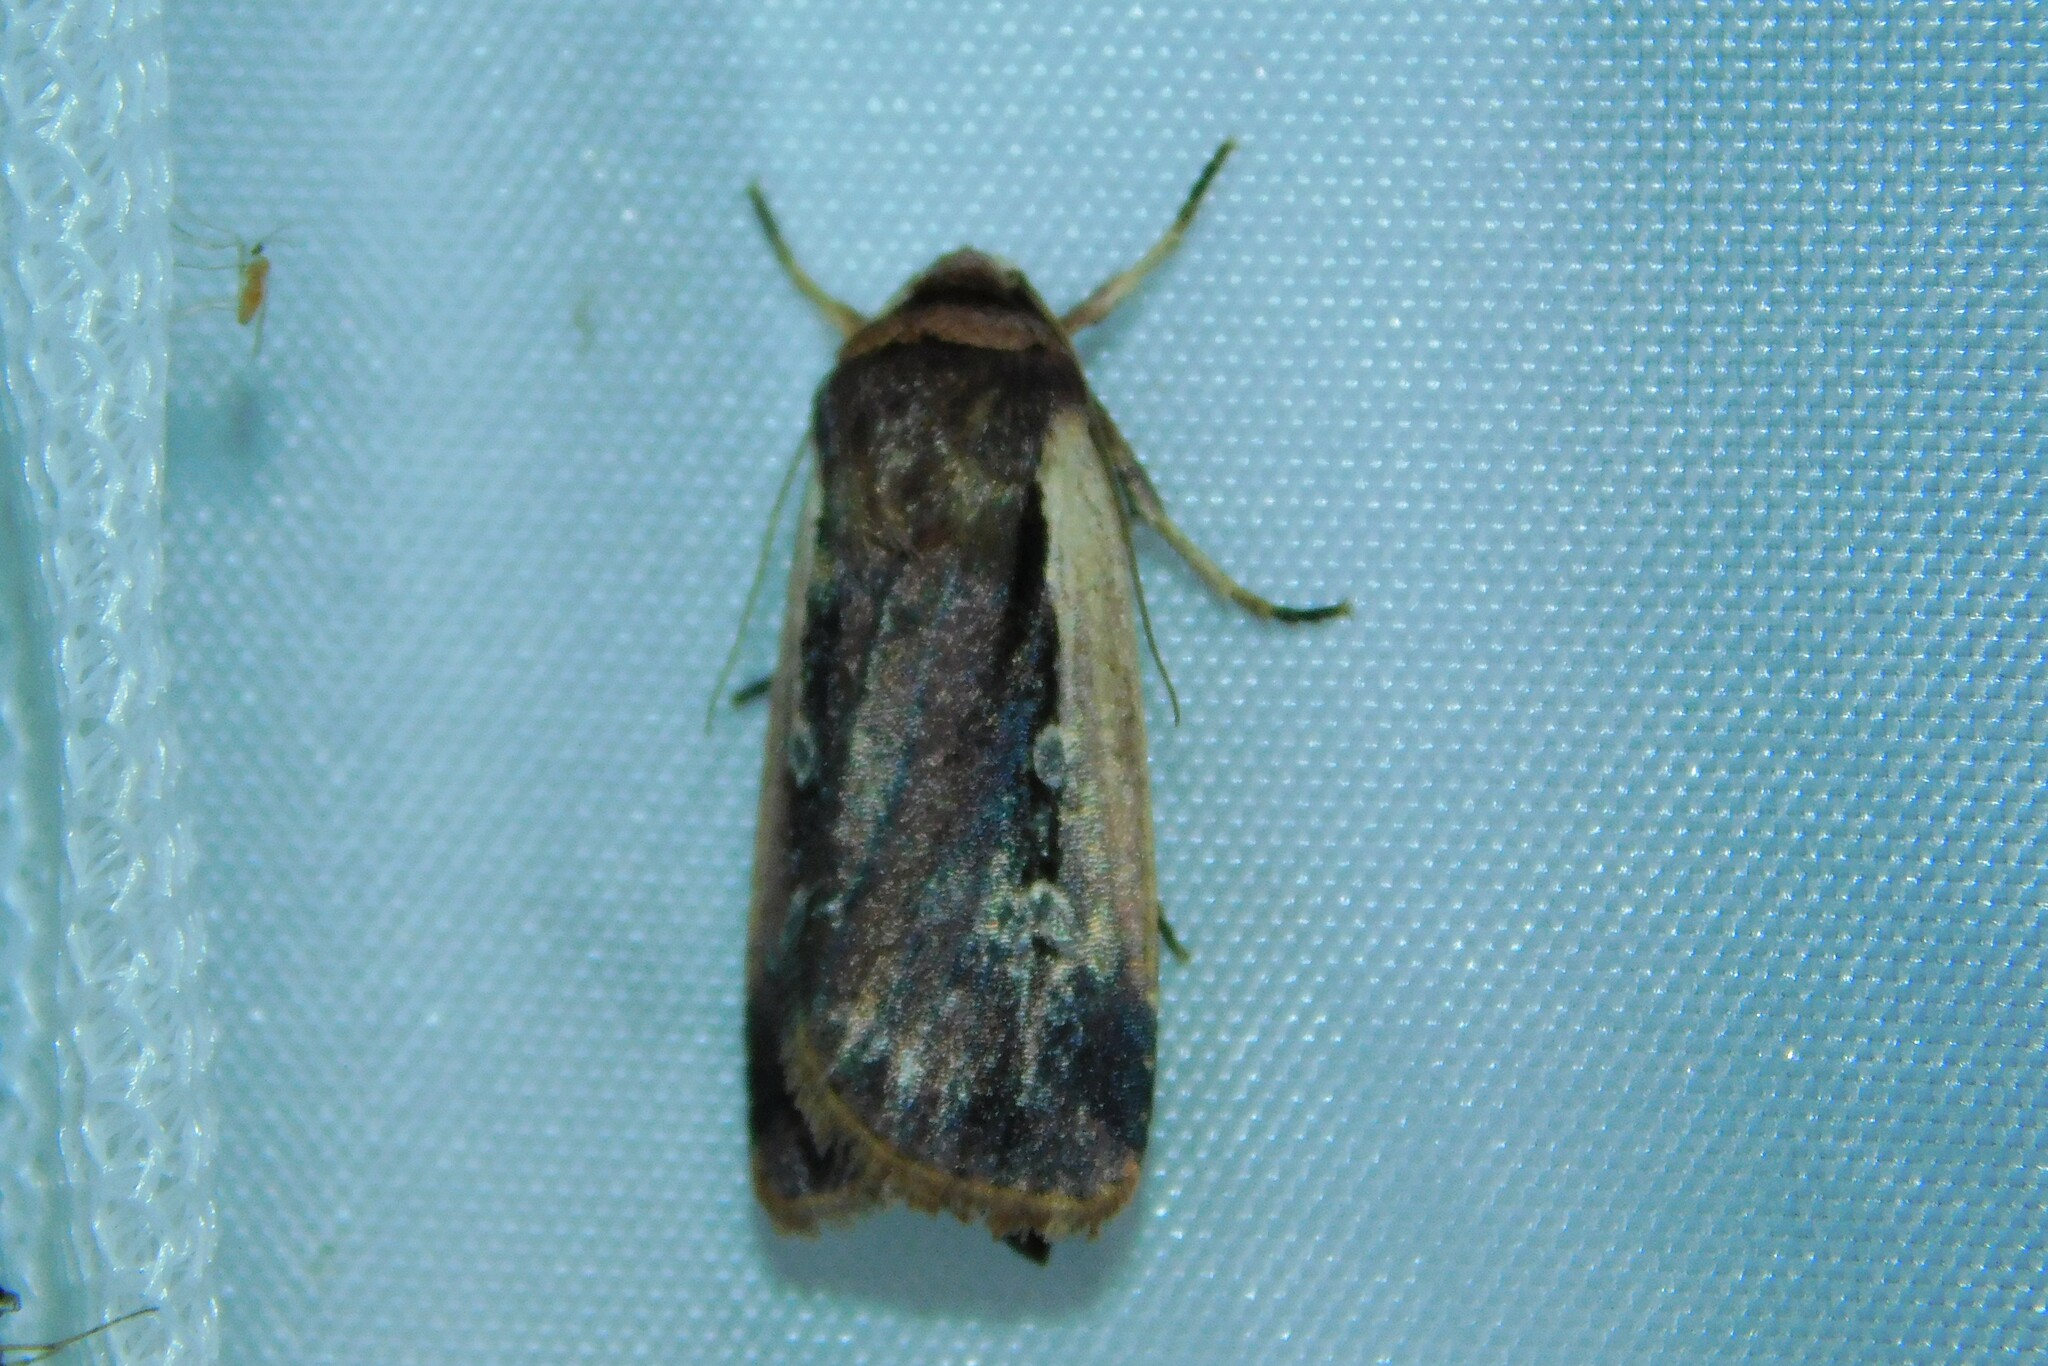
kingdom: Animalia
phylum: Arthropoda
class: Insecta
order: Lepidoptera
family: Noctuidae
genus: Ochropleura
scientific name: Ochropleura plecta
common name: Flame shoulder
